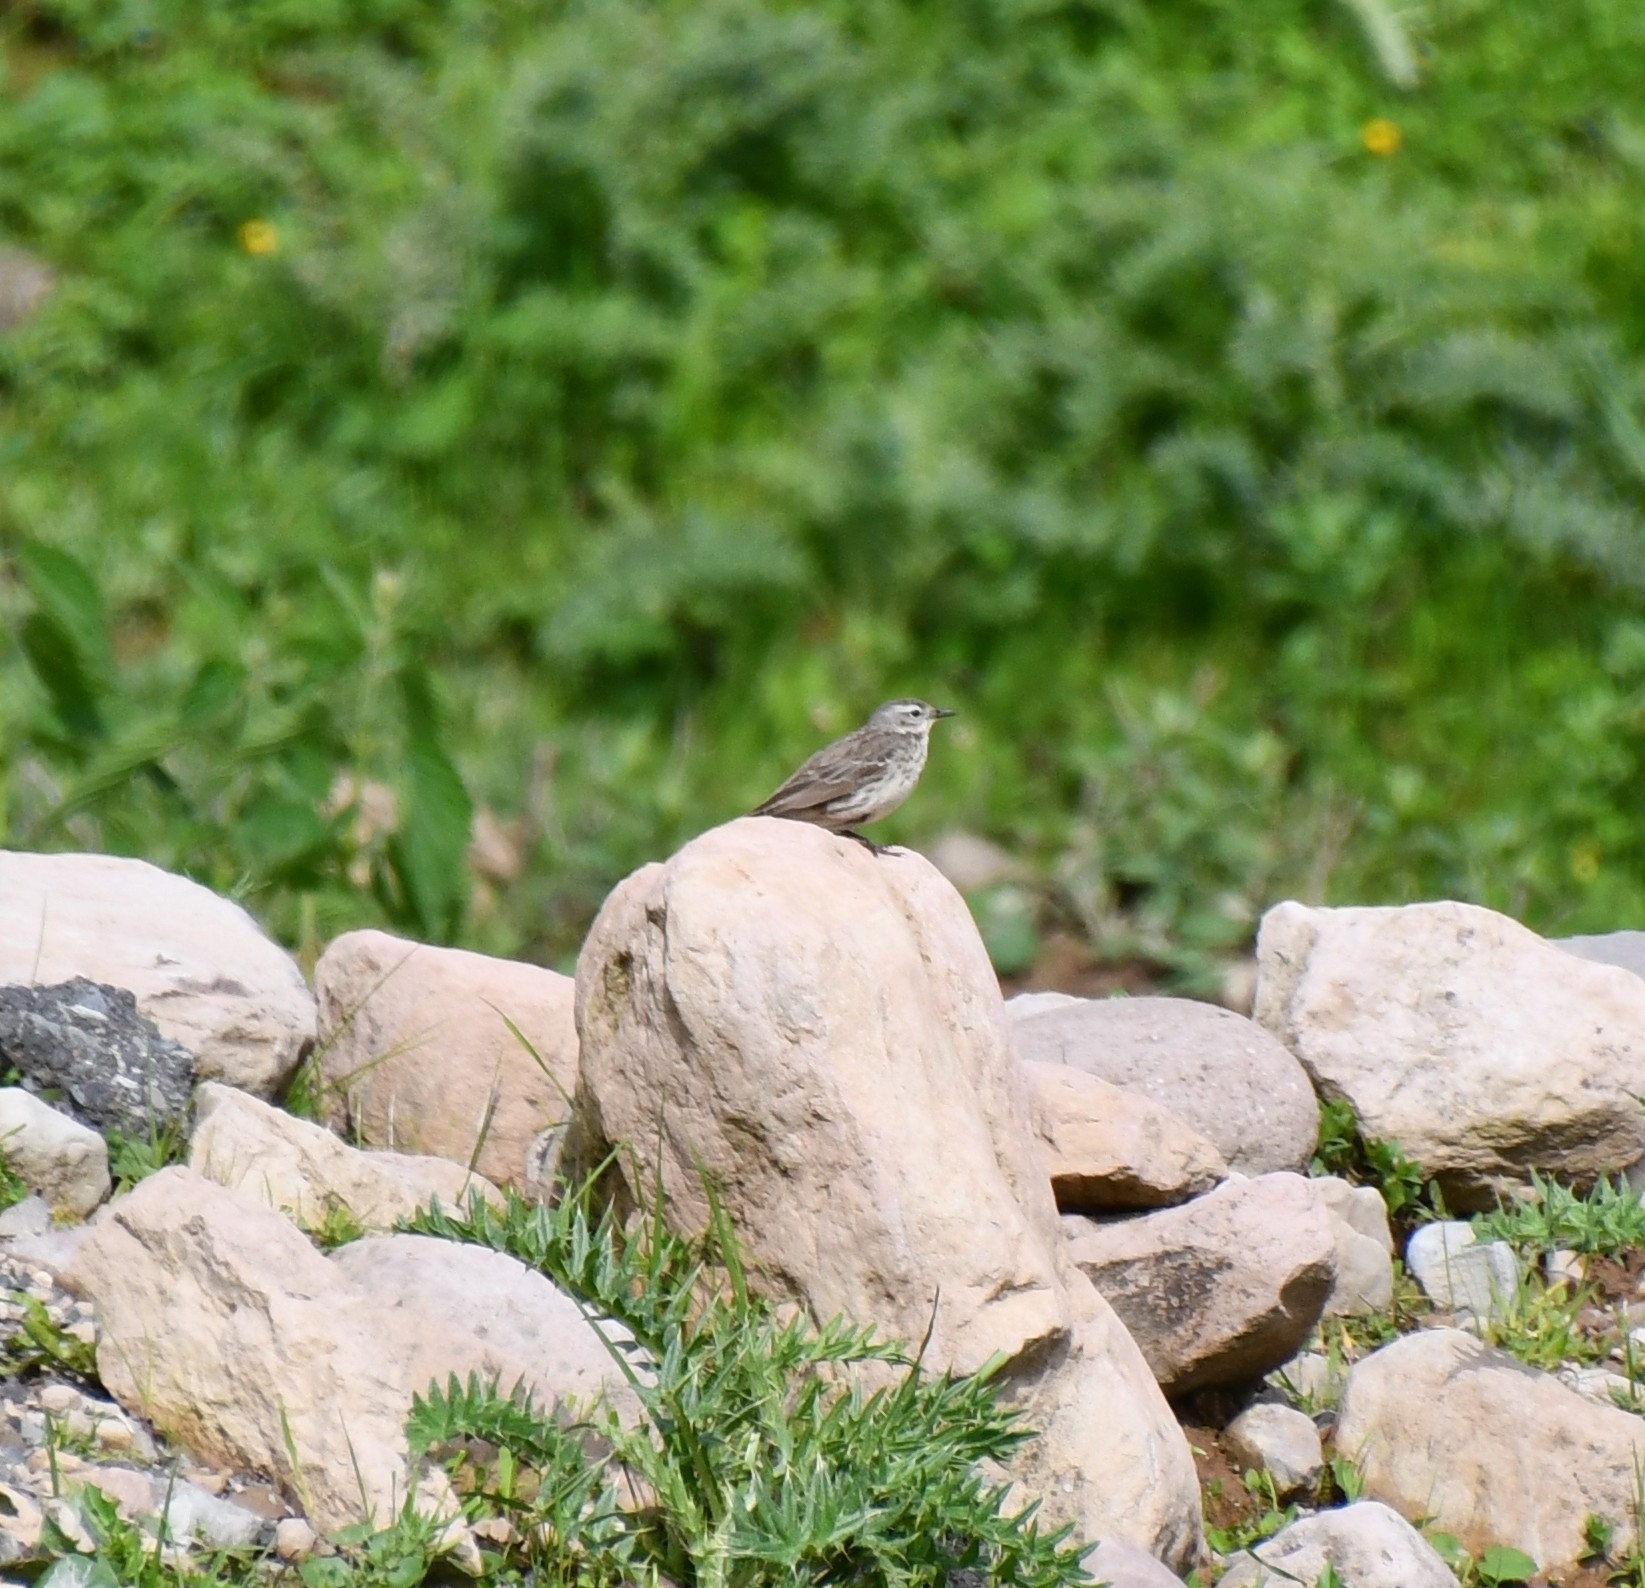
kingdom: Animalia
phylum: Chordata
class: Aves
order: Passeriformes
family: Motacillidae
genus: Anthus
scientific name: Anthus spinoletta
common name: Water pipit
